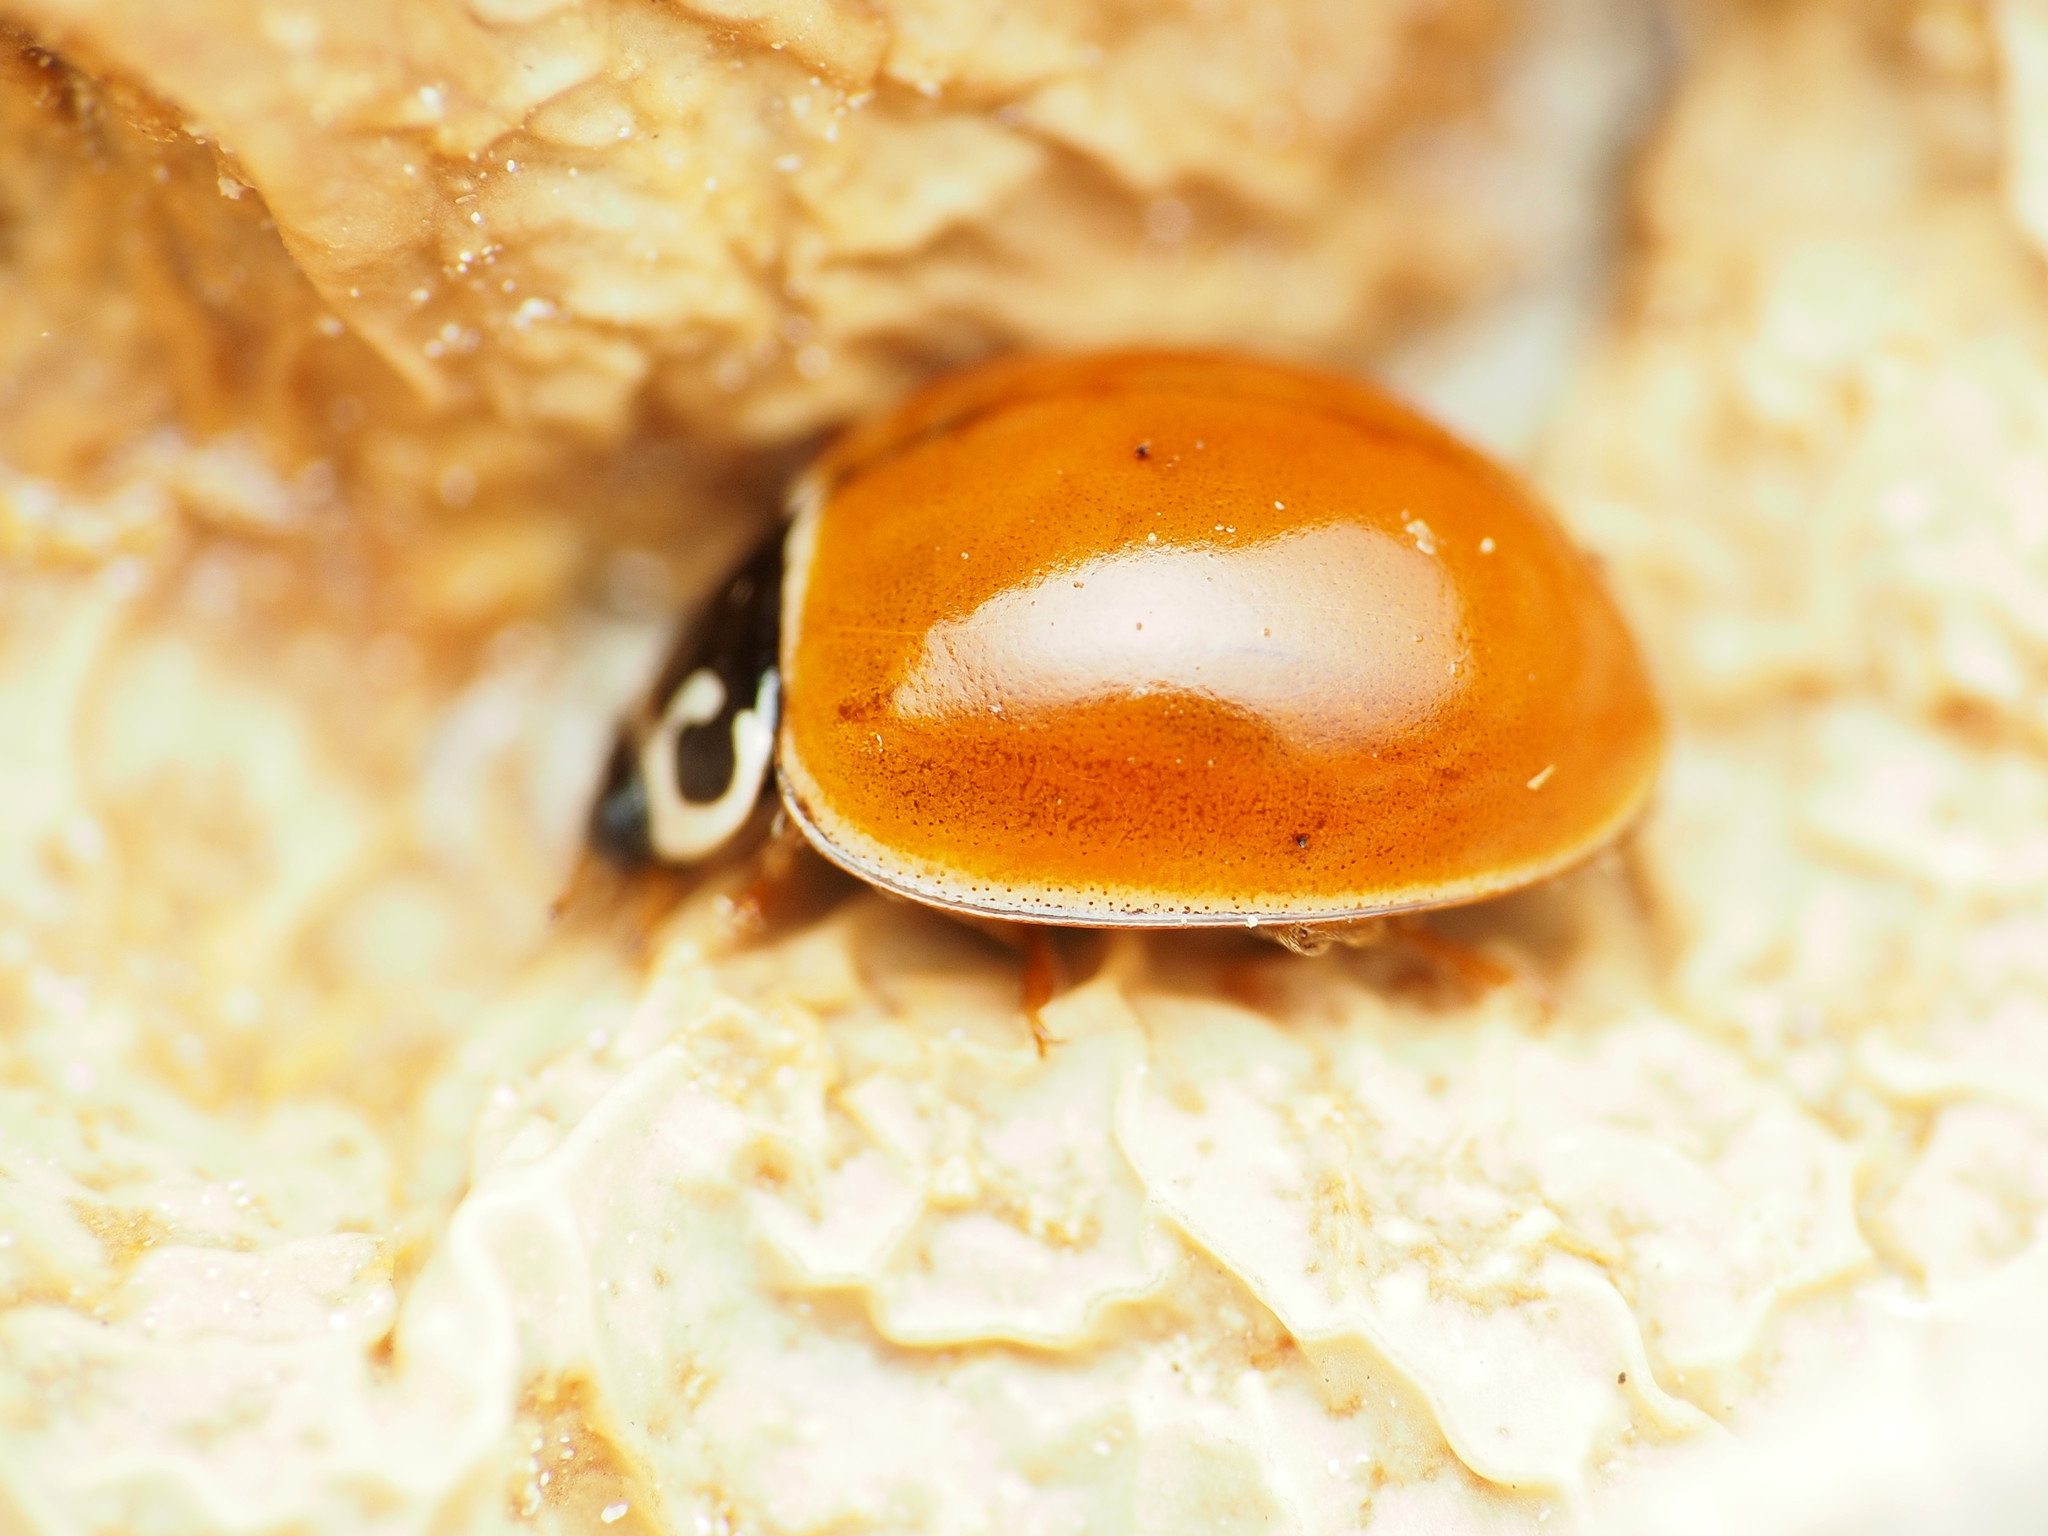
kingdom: Animalia
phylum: Arthropoda
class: Insecta
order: Coleoptera
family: Coccinellidae
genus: Cycloneda
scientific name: Cycloneda munda
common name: Polished lady beetle
